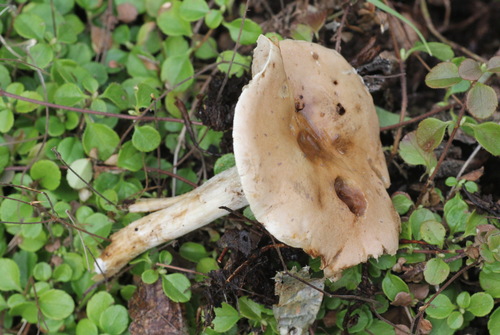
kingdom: Fungi
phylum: Basidiomycota
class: Agaricomycetes
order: Agaricales
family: Hymenogastraceae
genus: Hebeloma
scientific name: Hebeloma incarnatulum
